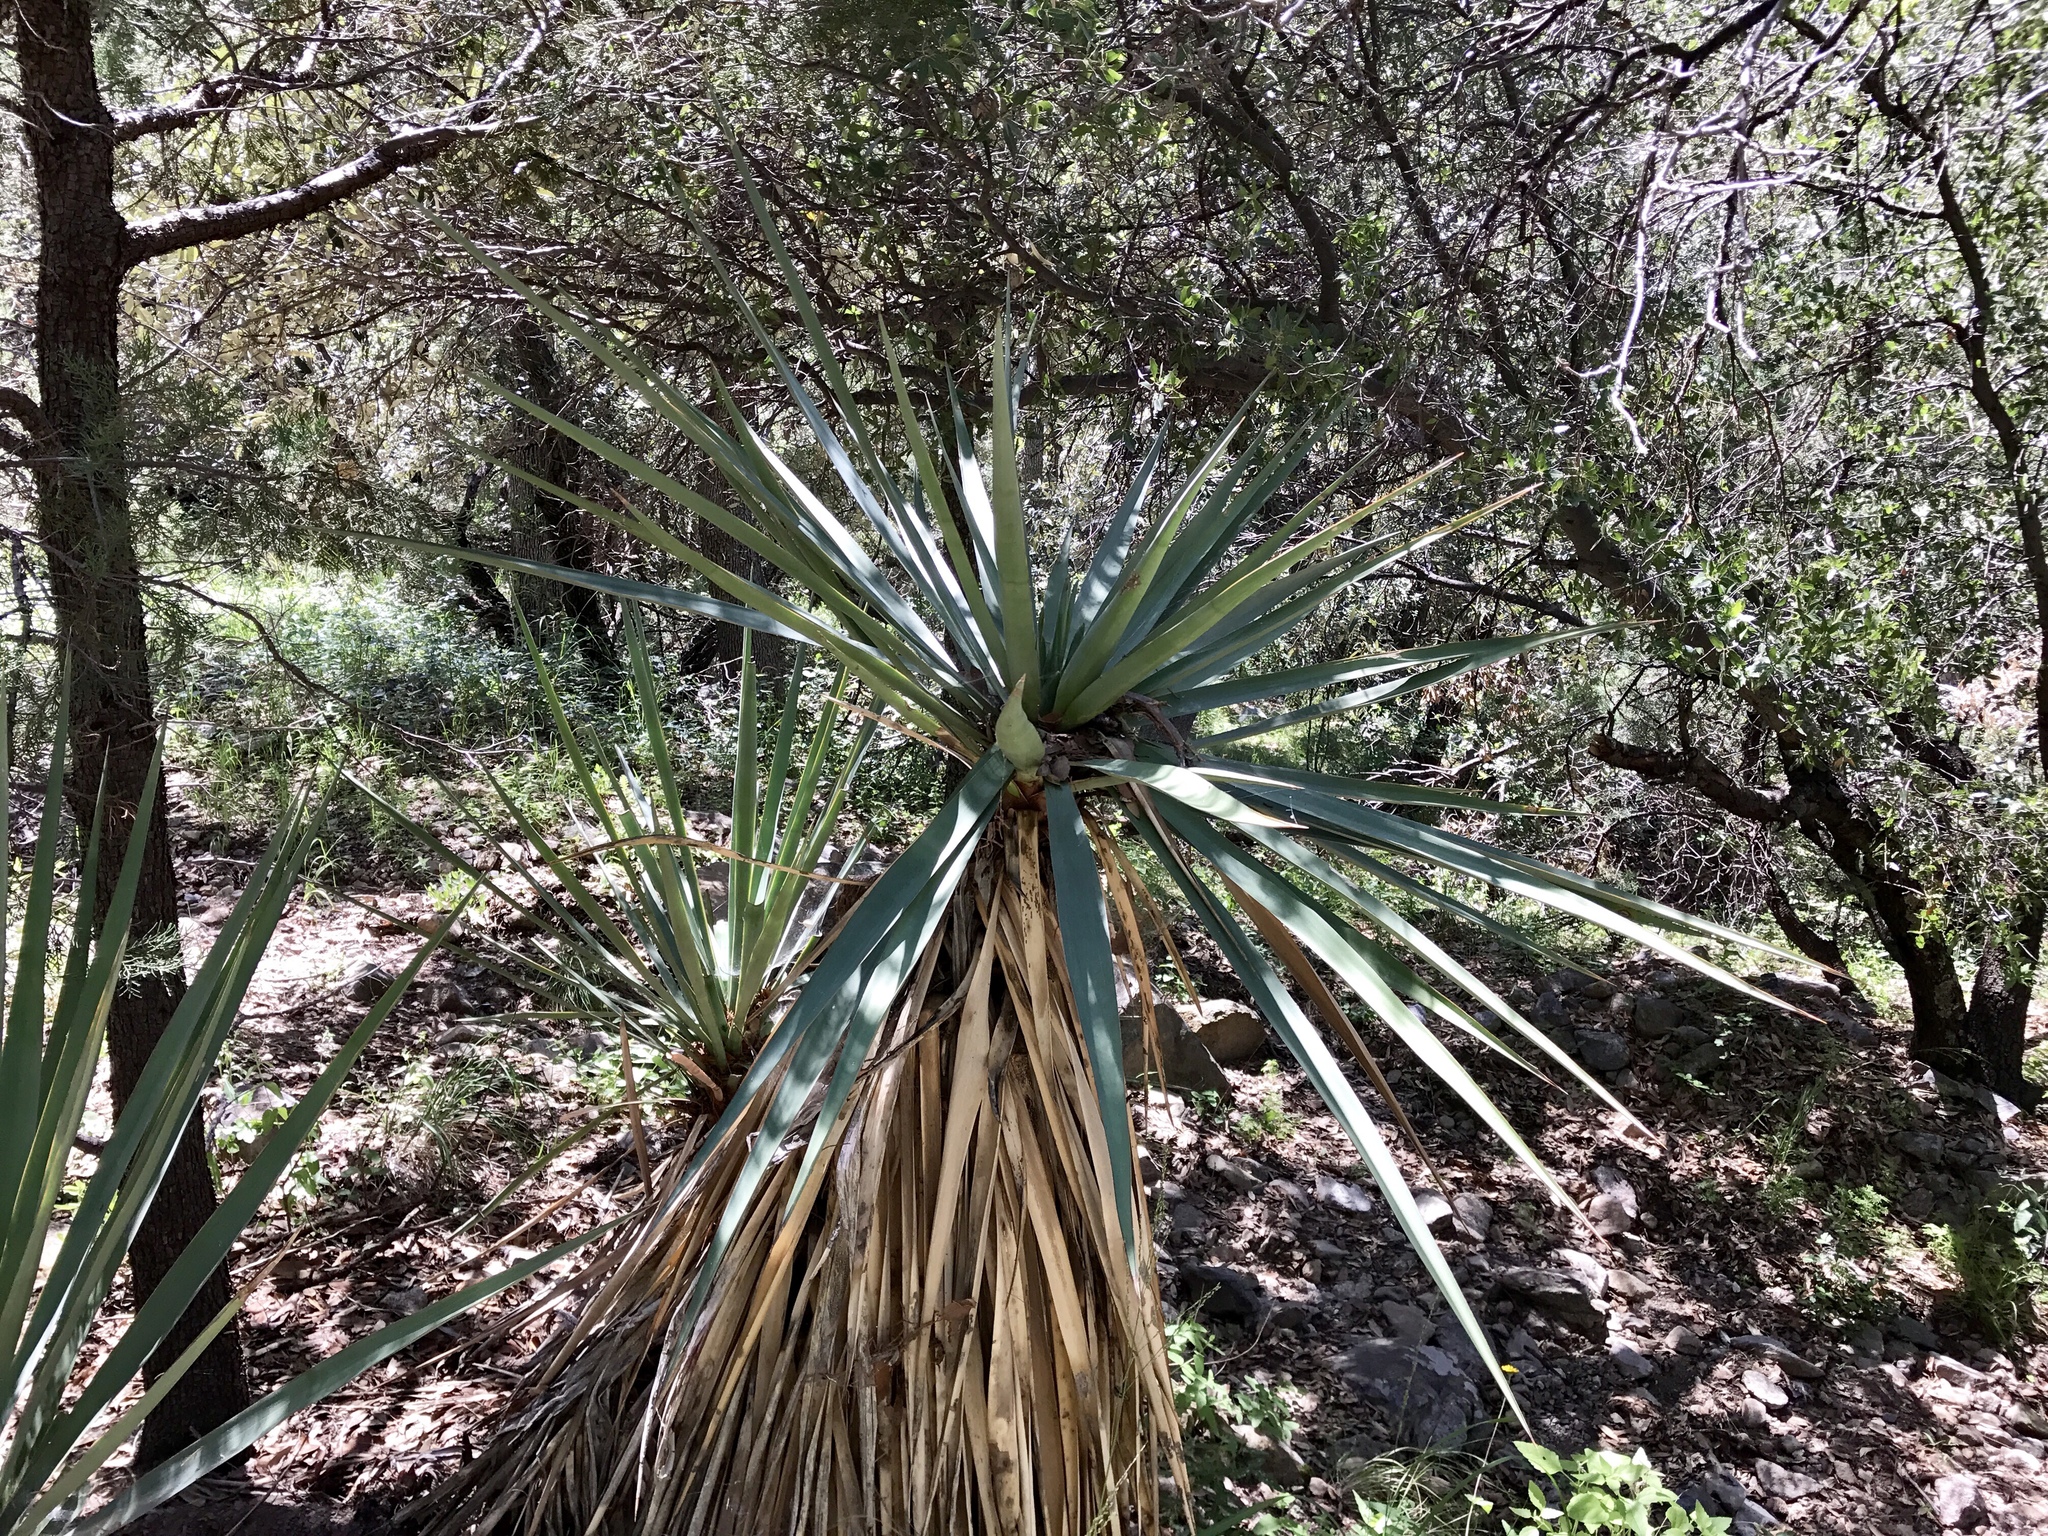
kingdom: Plantae
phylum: Tracheophyta
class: Liliopsida
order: Asparagales
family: Asparagaceae
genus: Yucca
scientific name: Yucca schottii
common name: Hoary yucca
